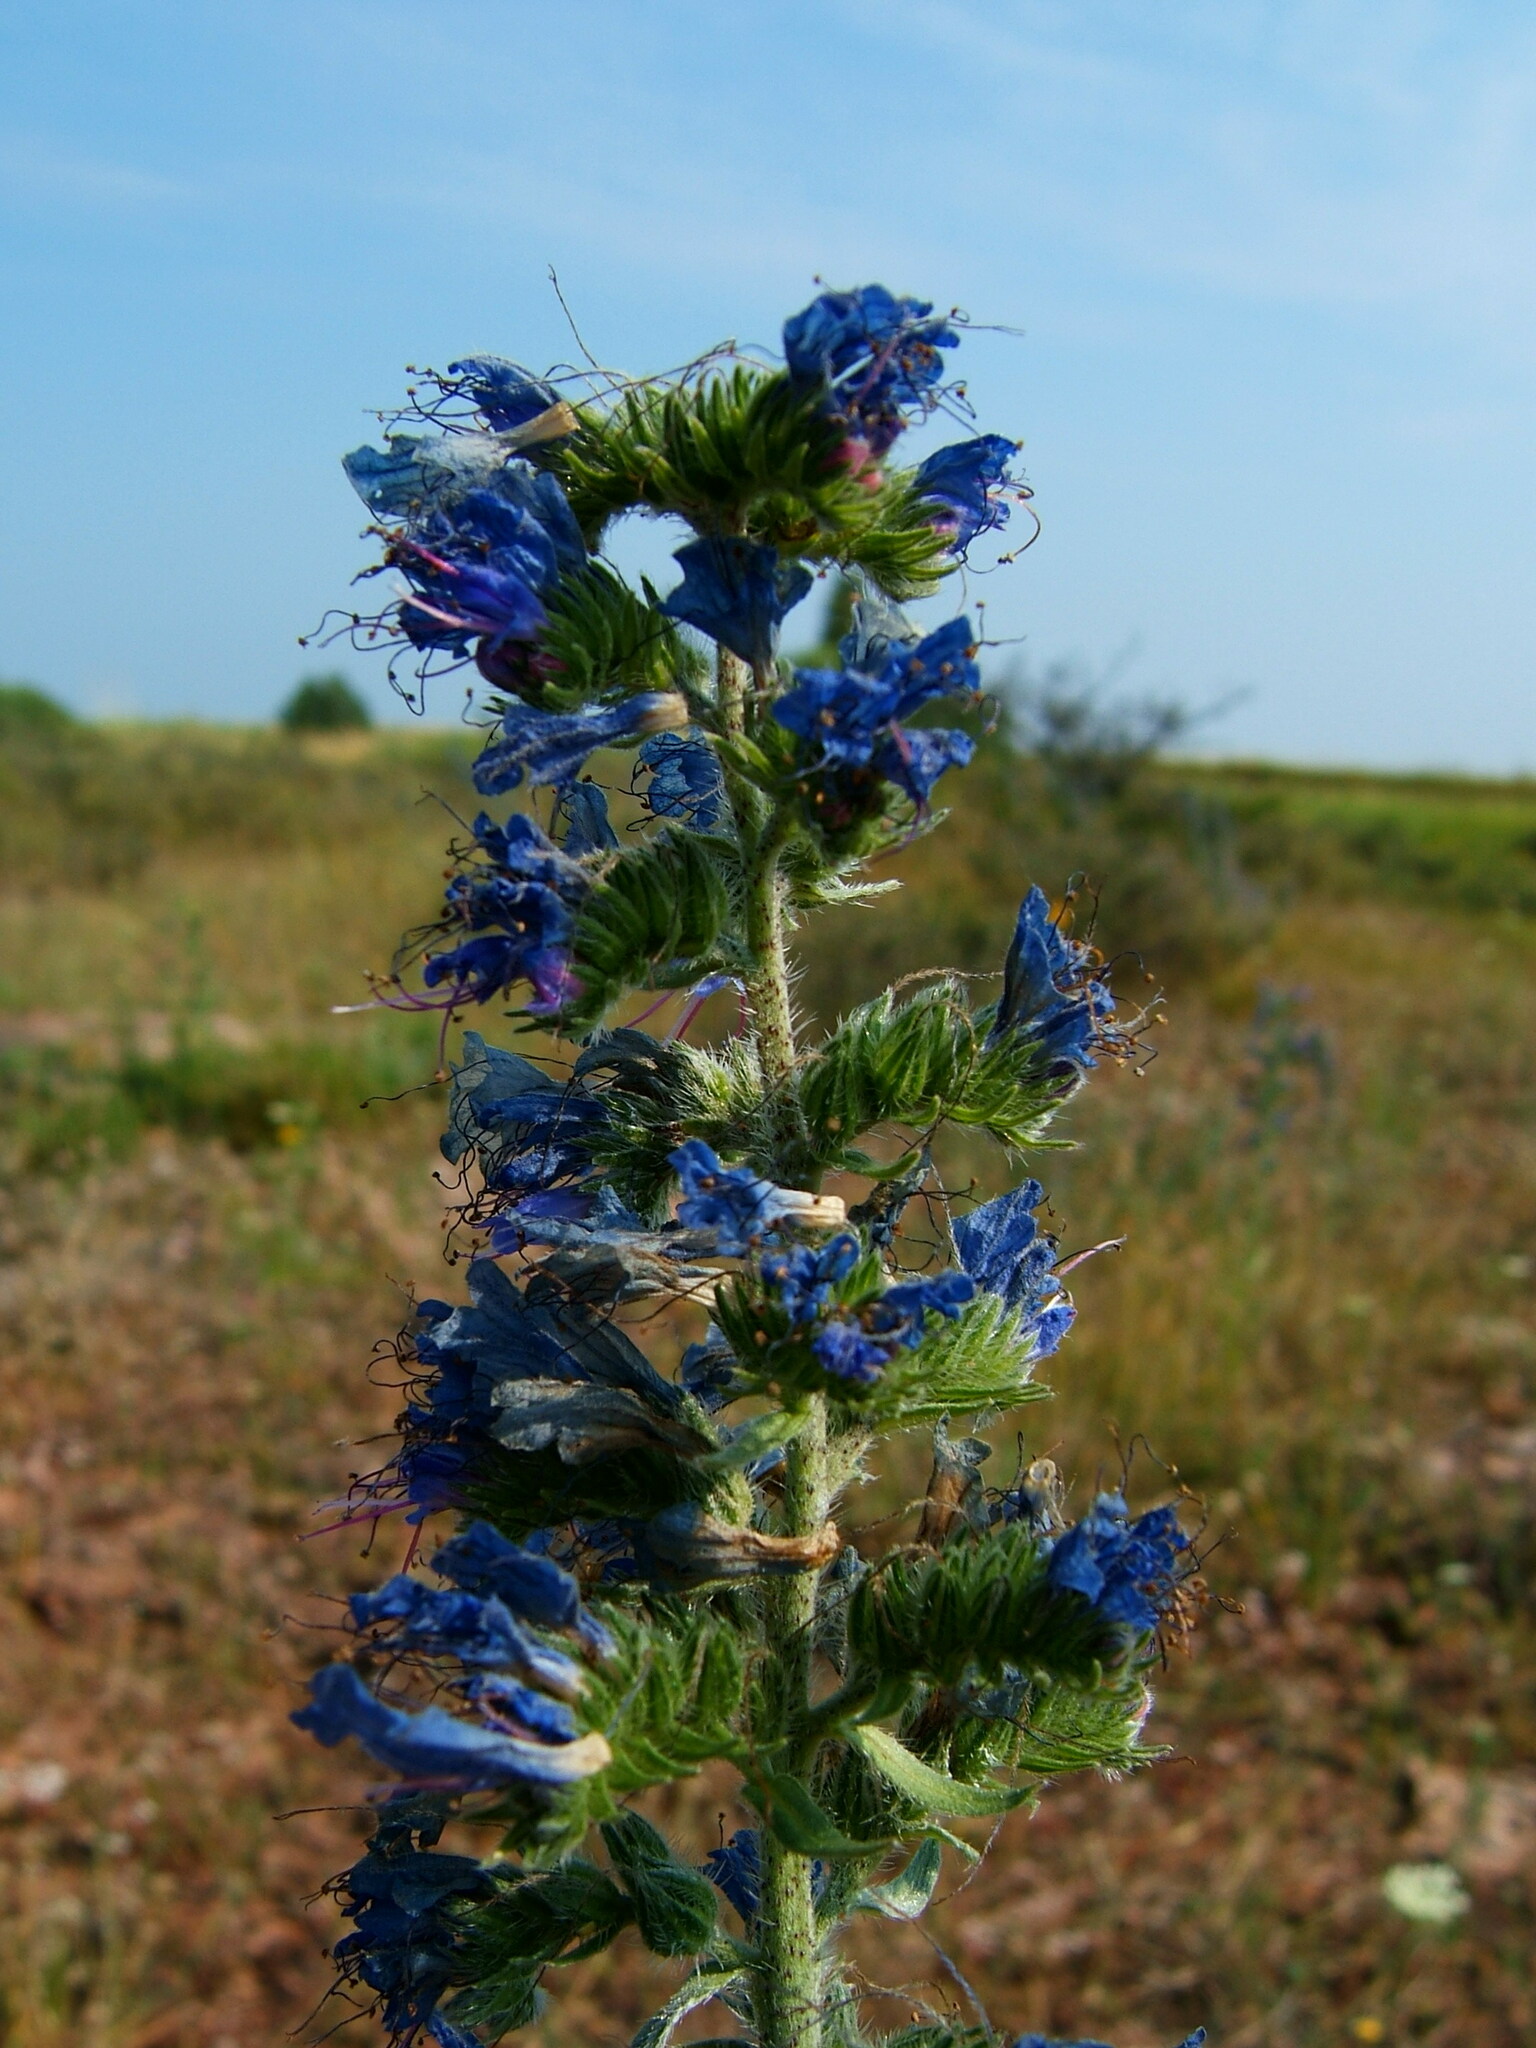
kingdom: Plantae
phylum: Tracheophyta
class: Magnoliopsida
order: Boraginales
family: Boraginaceae
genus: Echium
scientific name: Echium vulgare
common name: Common viper's bugloss
